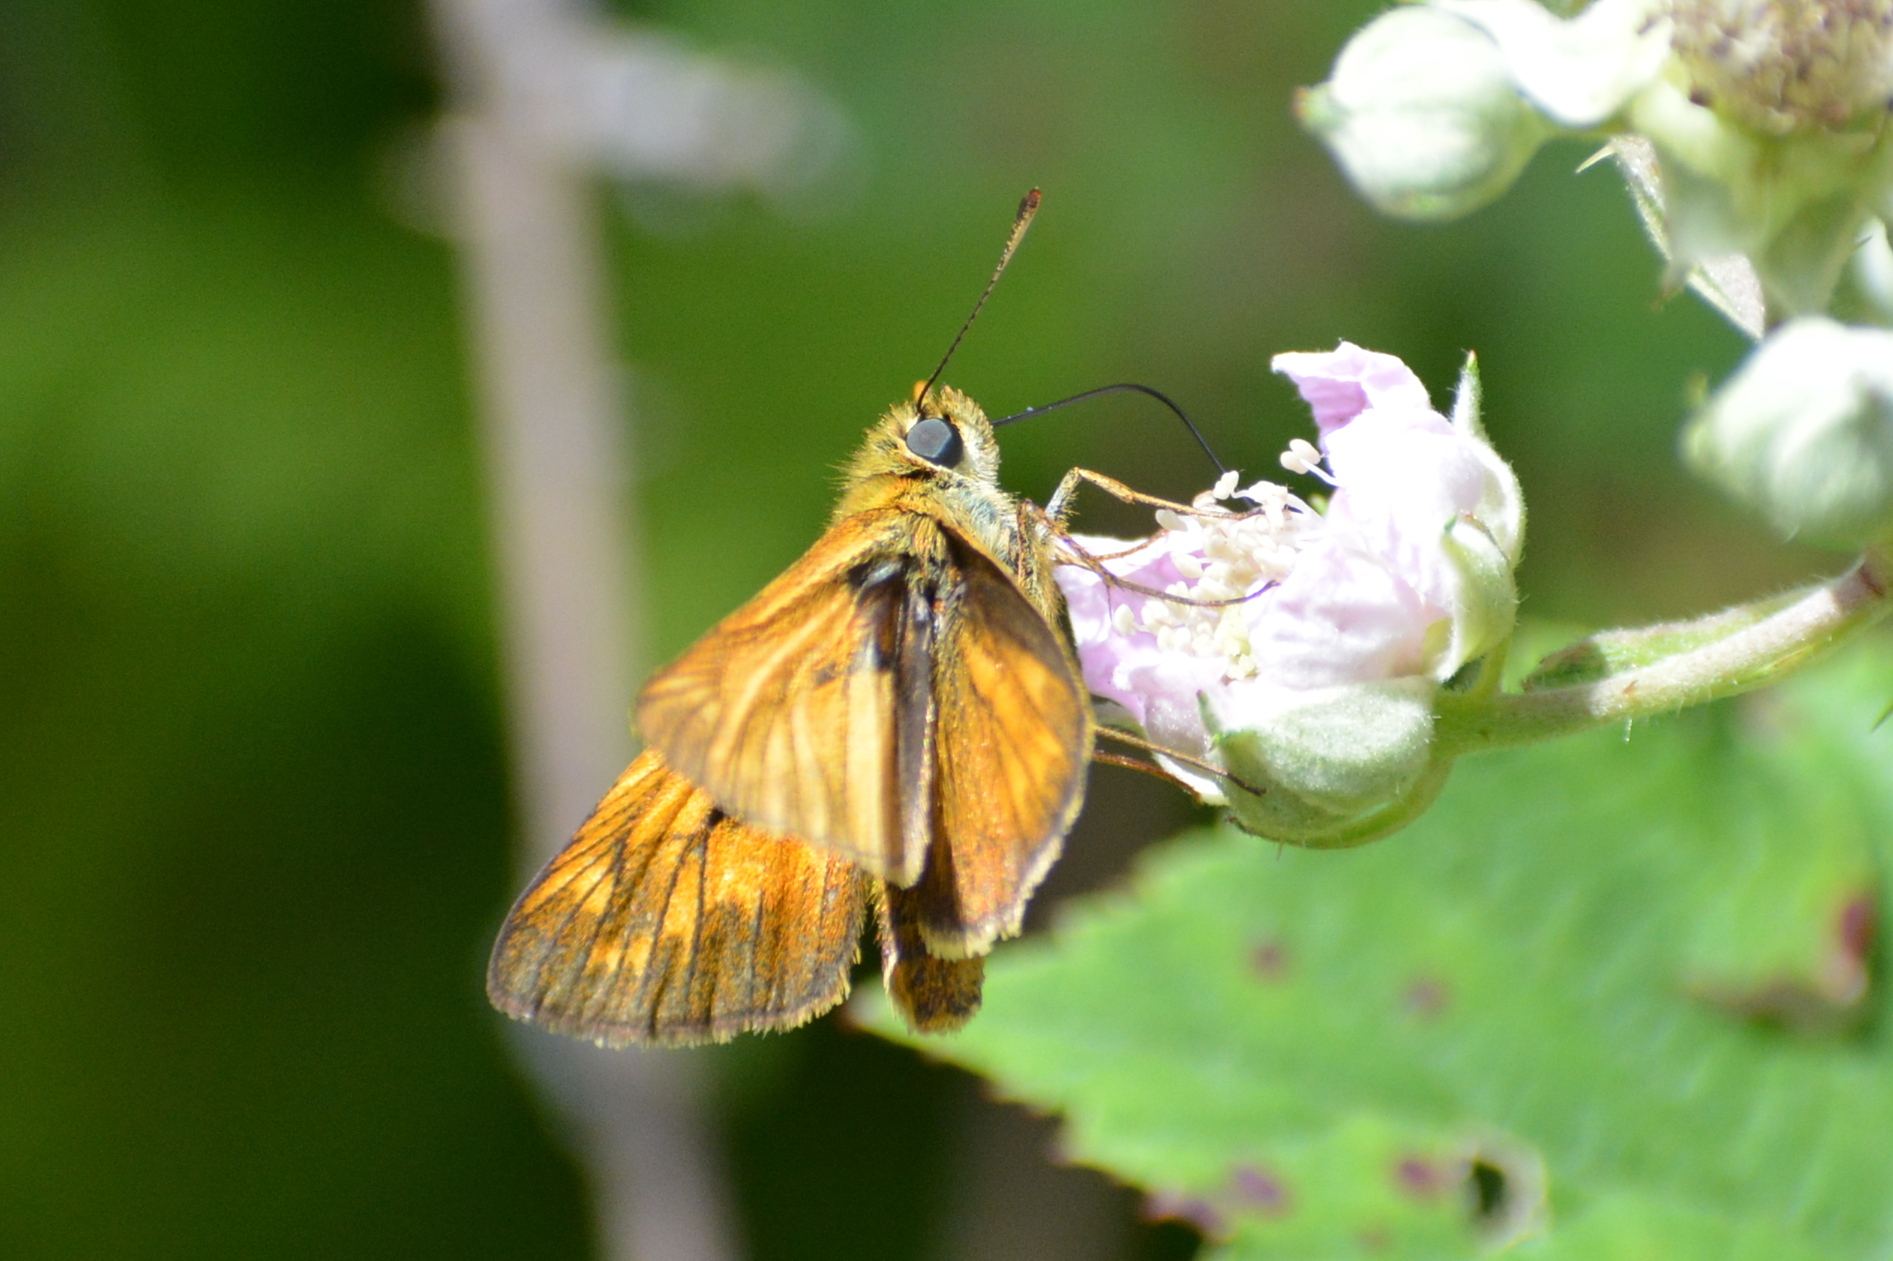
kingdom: Animalia
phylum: Arthropoda
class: Insecta
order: Lepidoptera
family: Hesperiidae
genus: Ochlodes
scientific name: Ochlodes venata
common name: Large skipper
